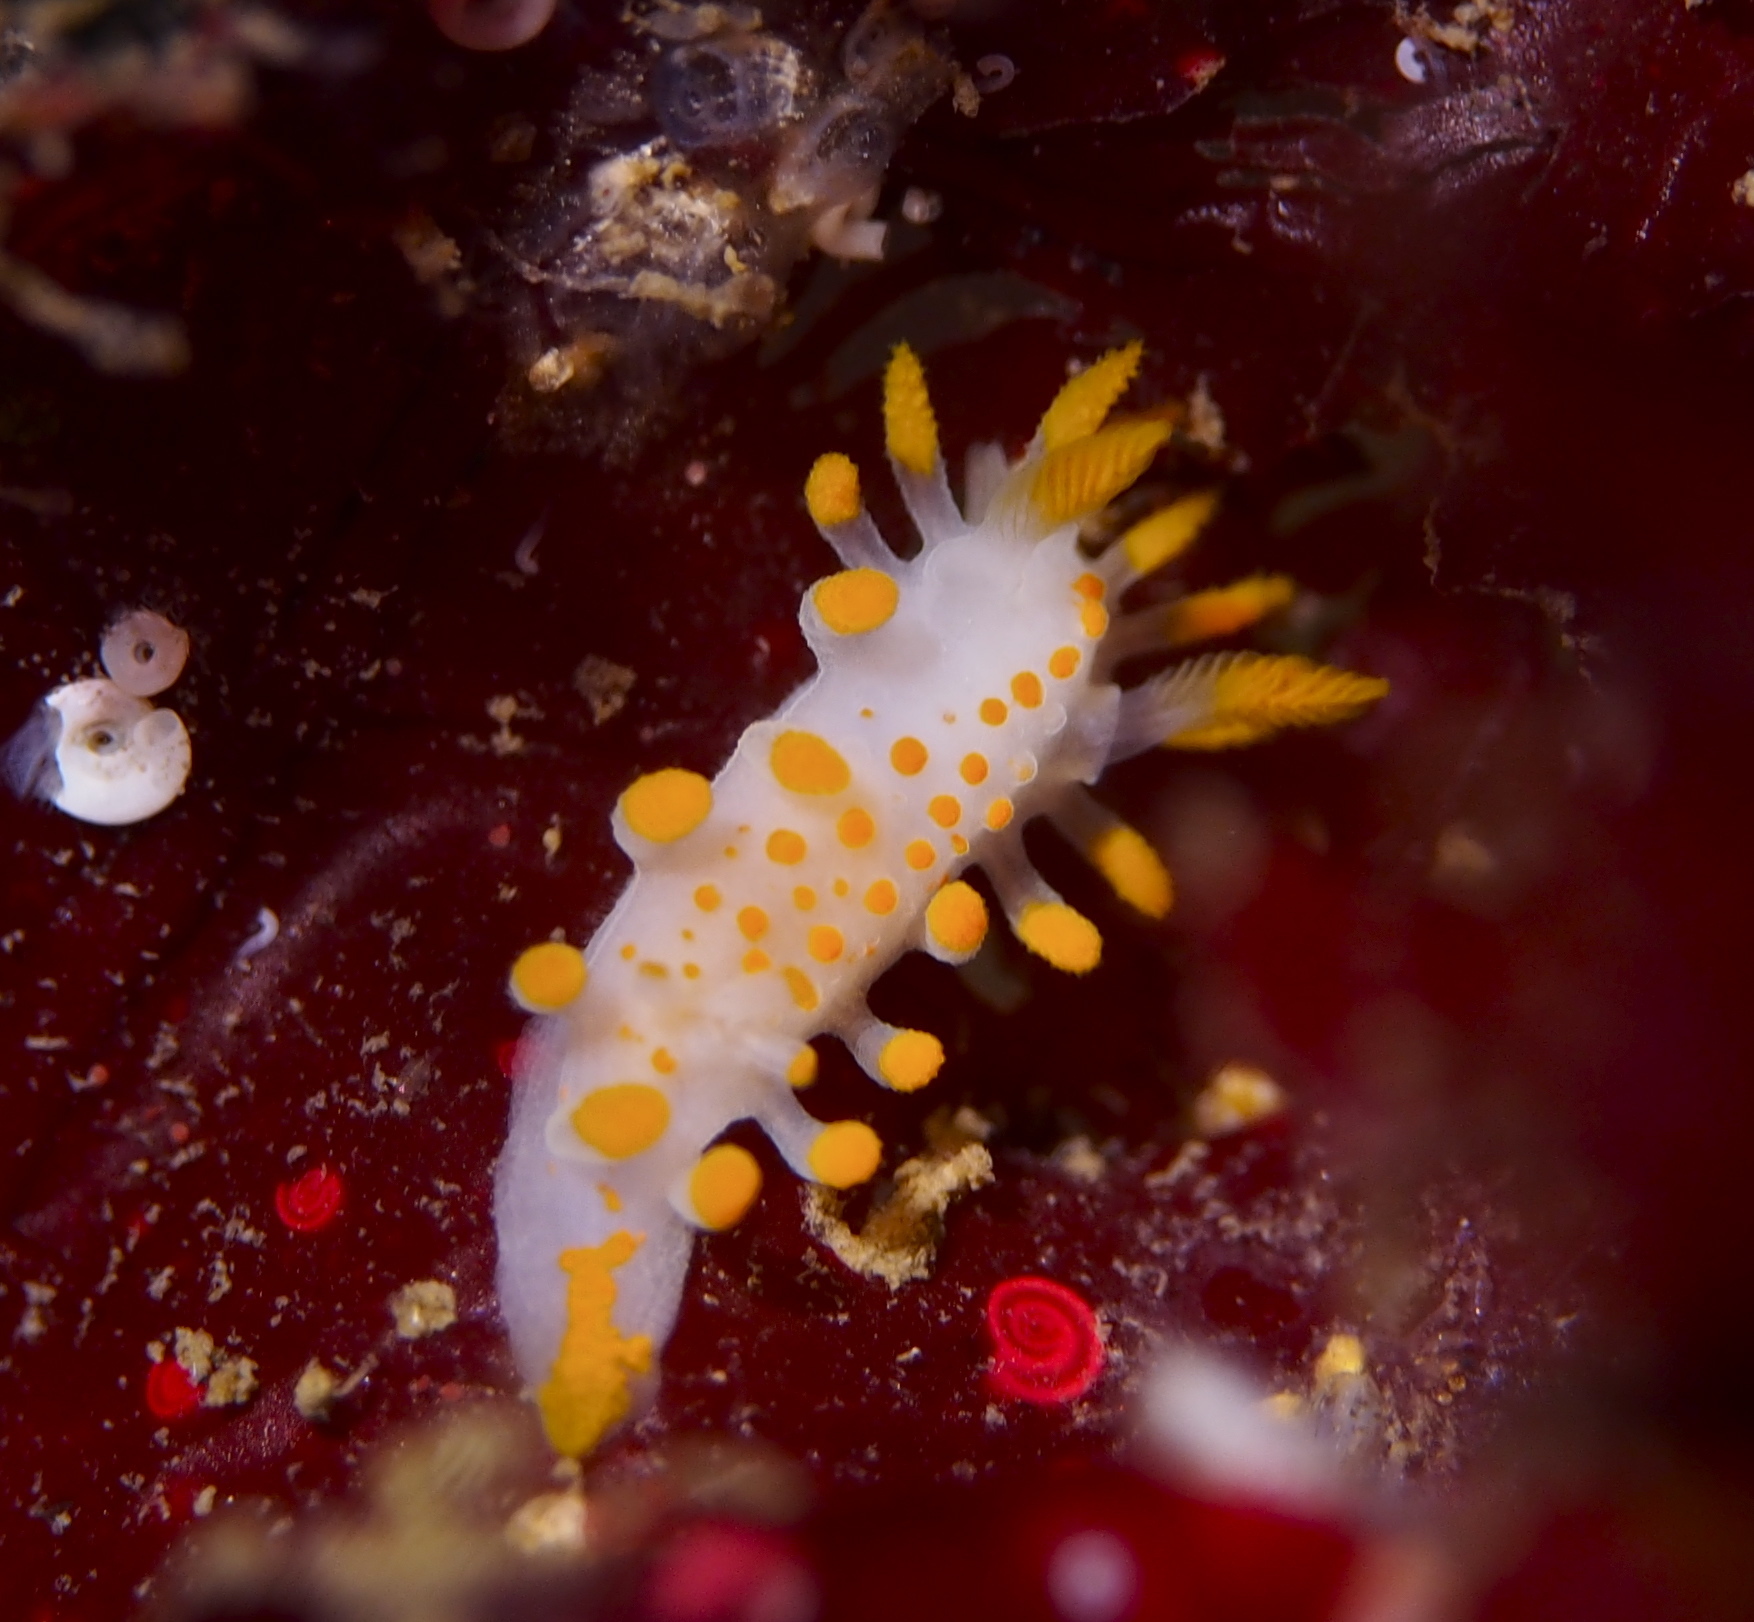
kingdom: Animalia
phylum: Mollusca
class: Gastropoda
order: Nudibranchia
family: Polyceridae
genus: Limacia
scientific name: Limacia clavigera
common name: Orange-clubbed sea slug
